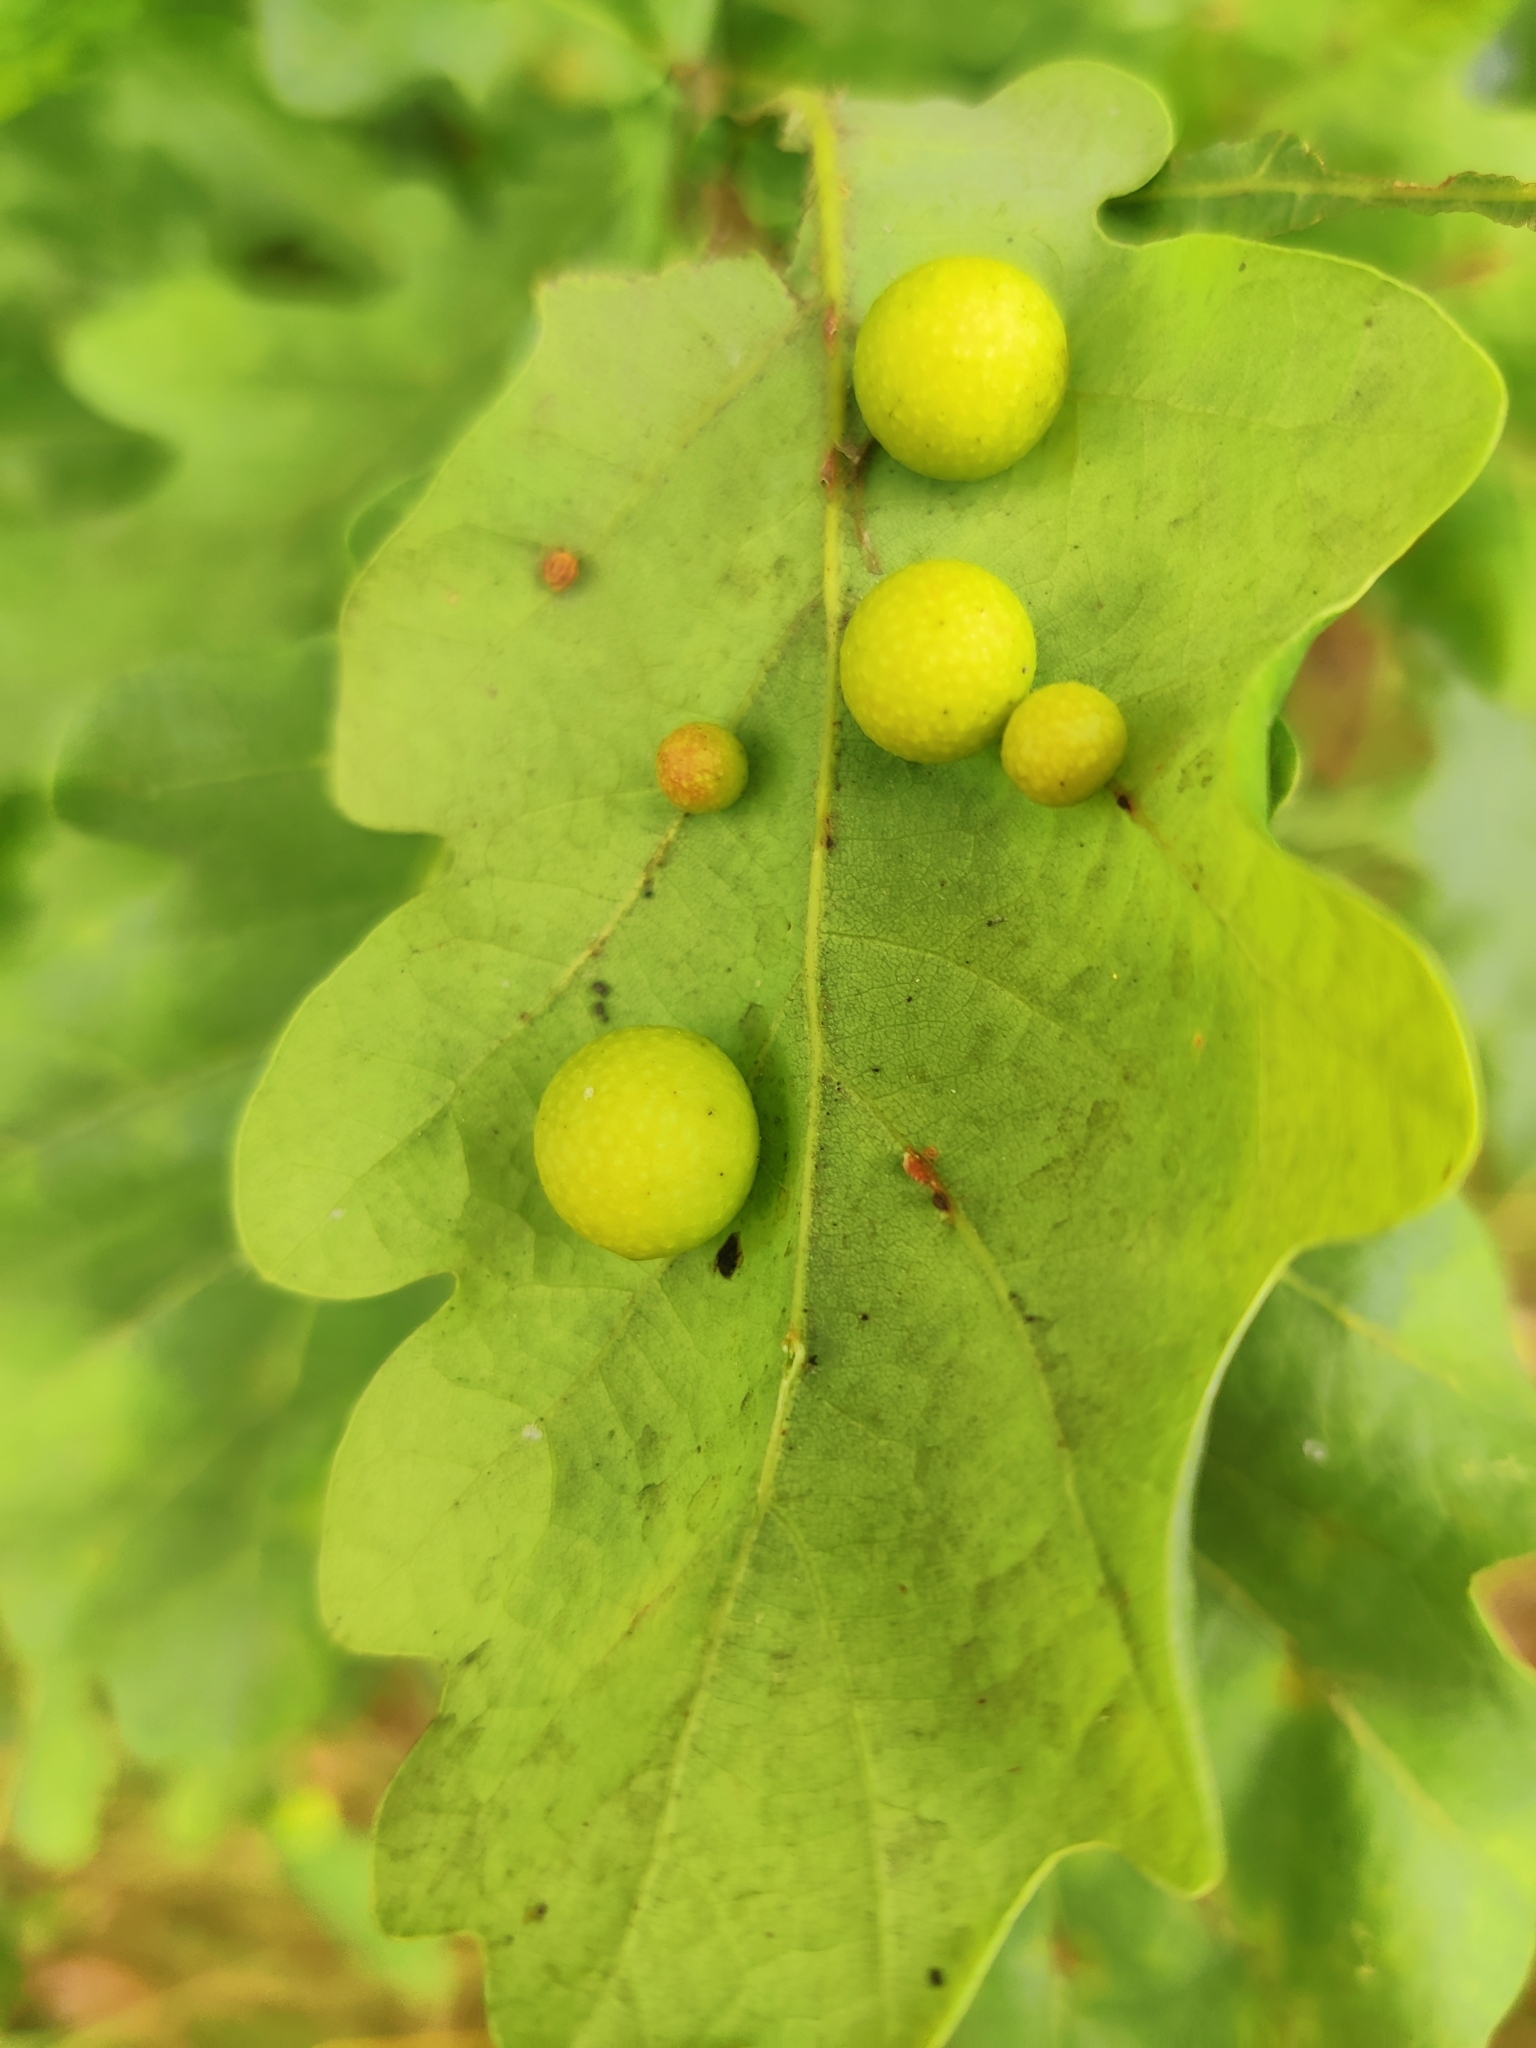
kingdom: Animalia
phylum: Arthropoda
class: Insecta
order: Hymenoptera
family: Cynipidae
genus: Cynips
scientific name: Cynips quercusfolii
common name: Cherry gall
